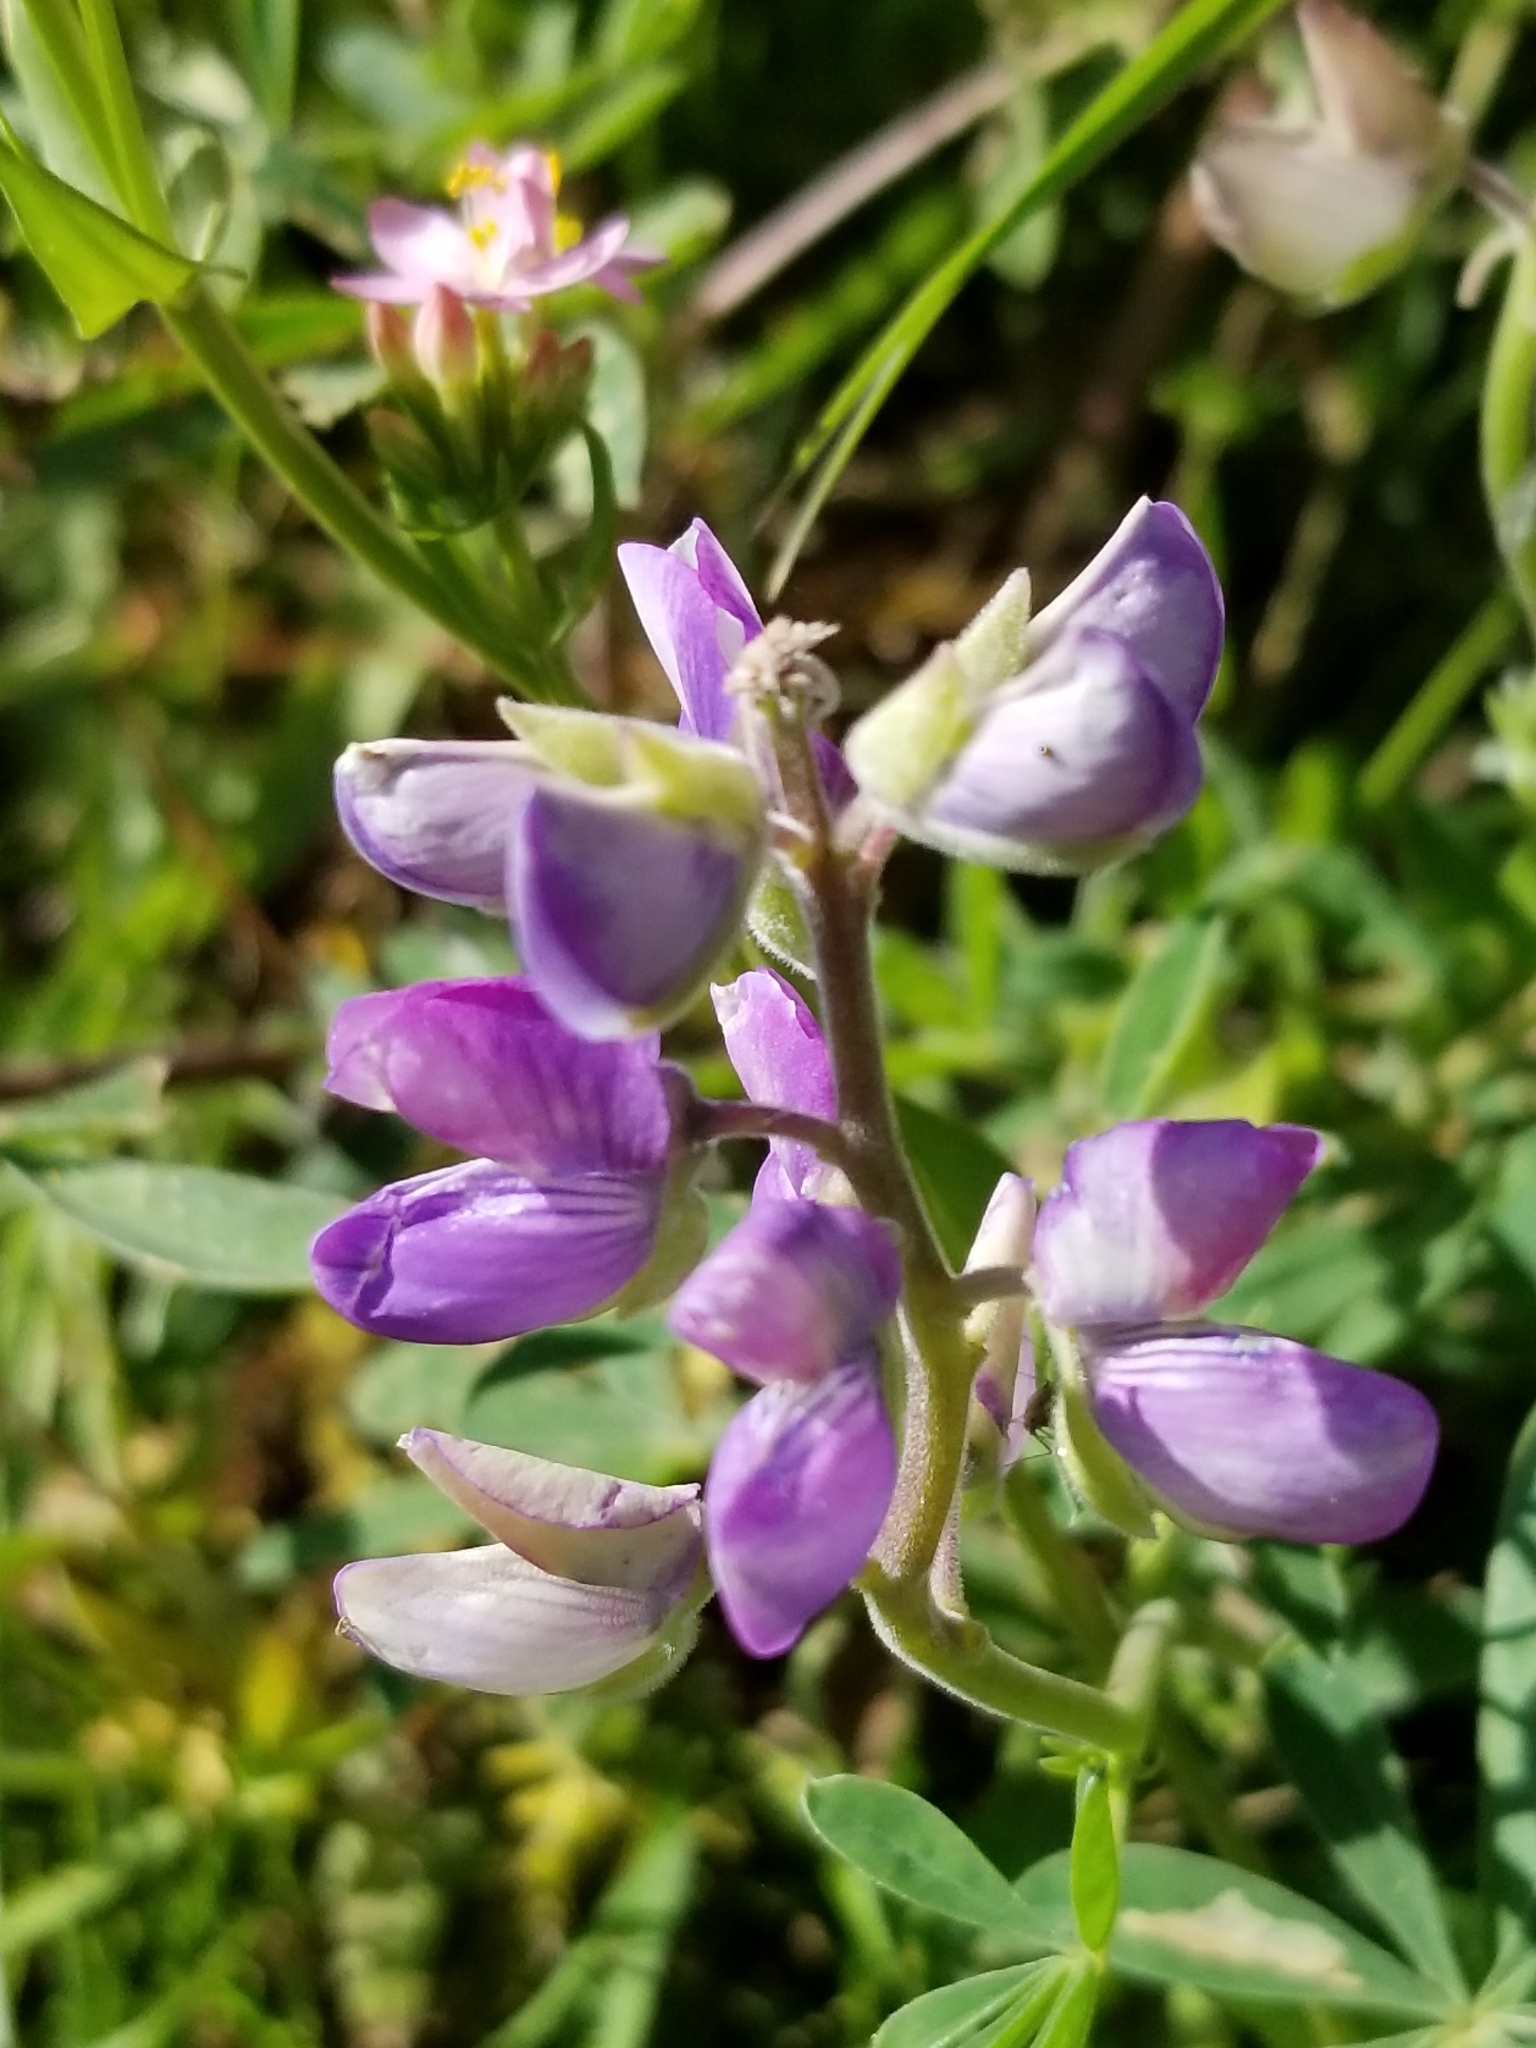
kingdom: Plantae
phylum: Tracheophyta
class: Magnoliopsida
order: Fabales
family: Fabaceae
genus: Lupinus
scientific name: Lupinus latifolius
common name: Broad-leaved lupine
